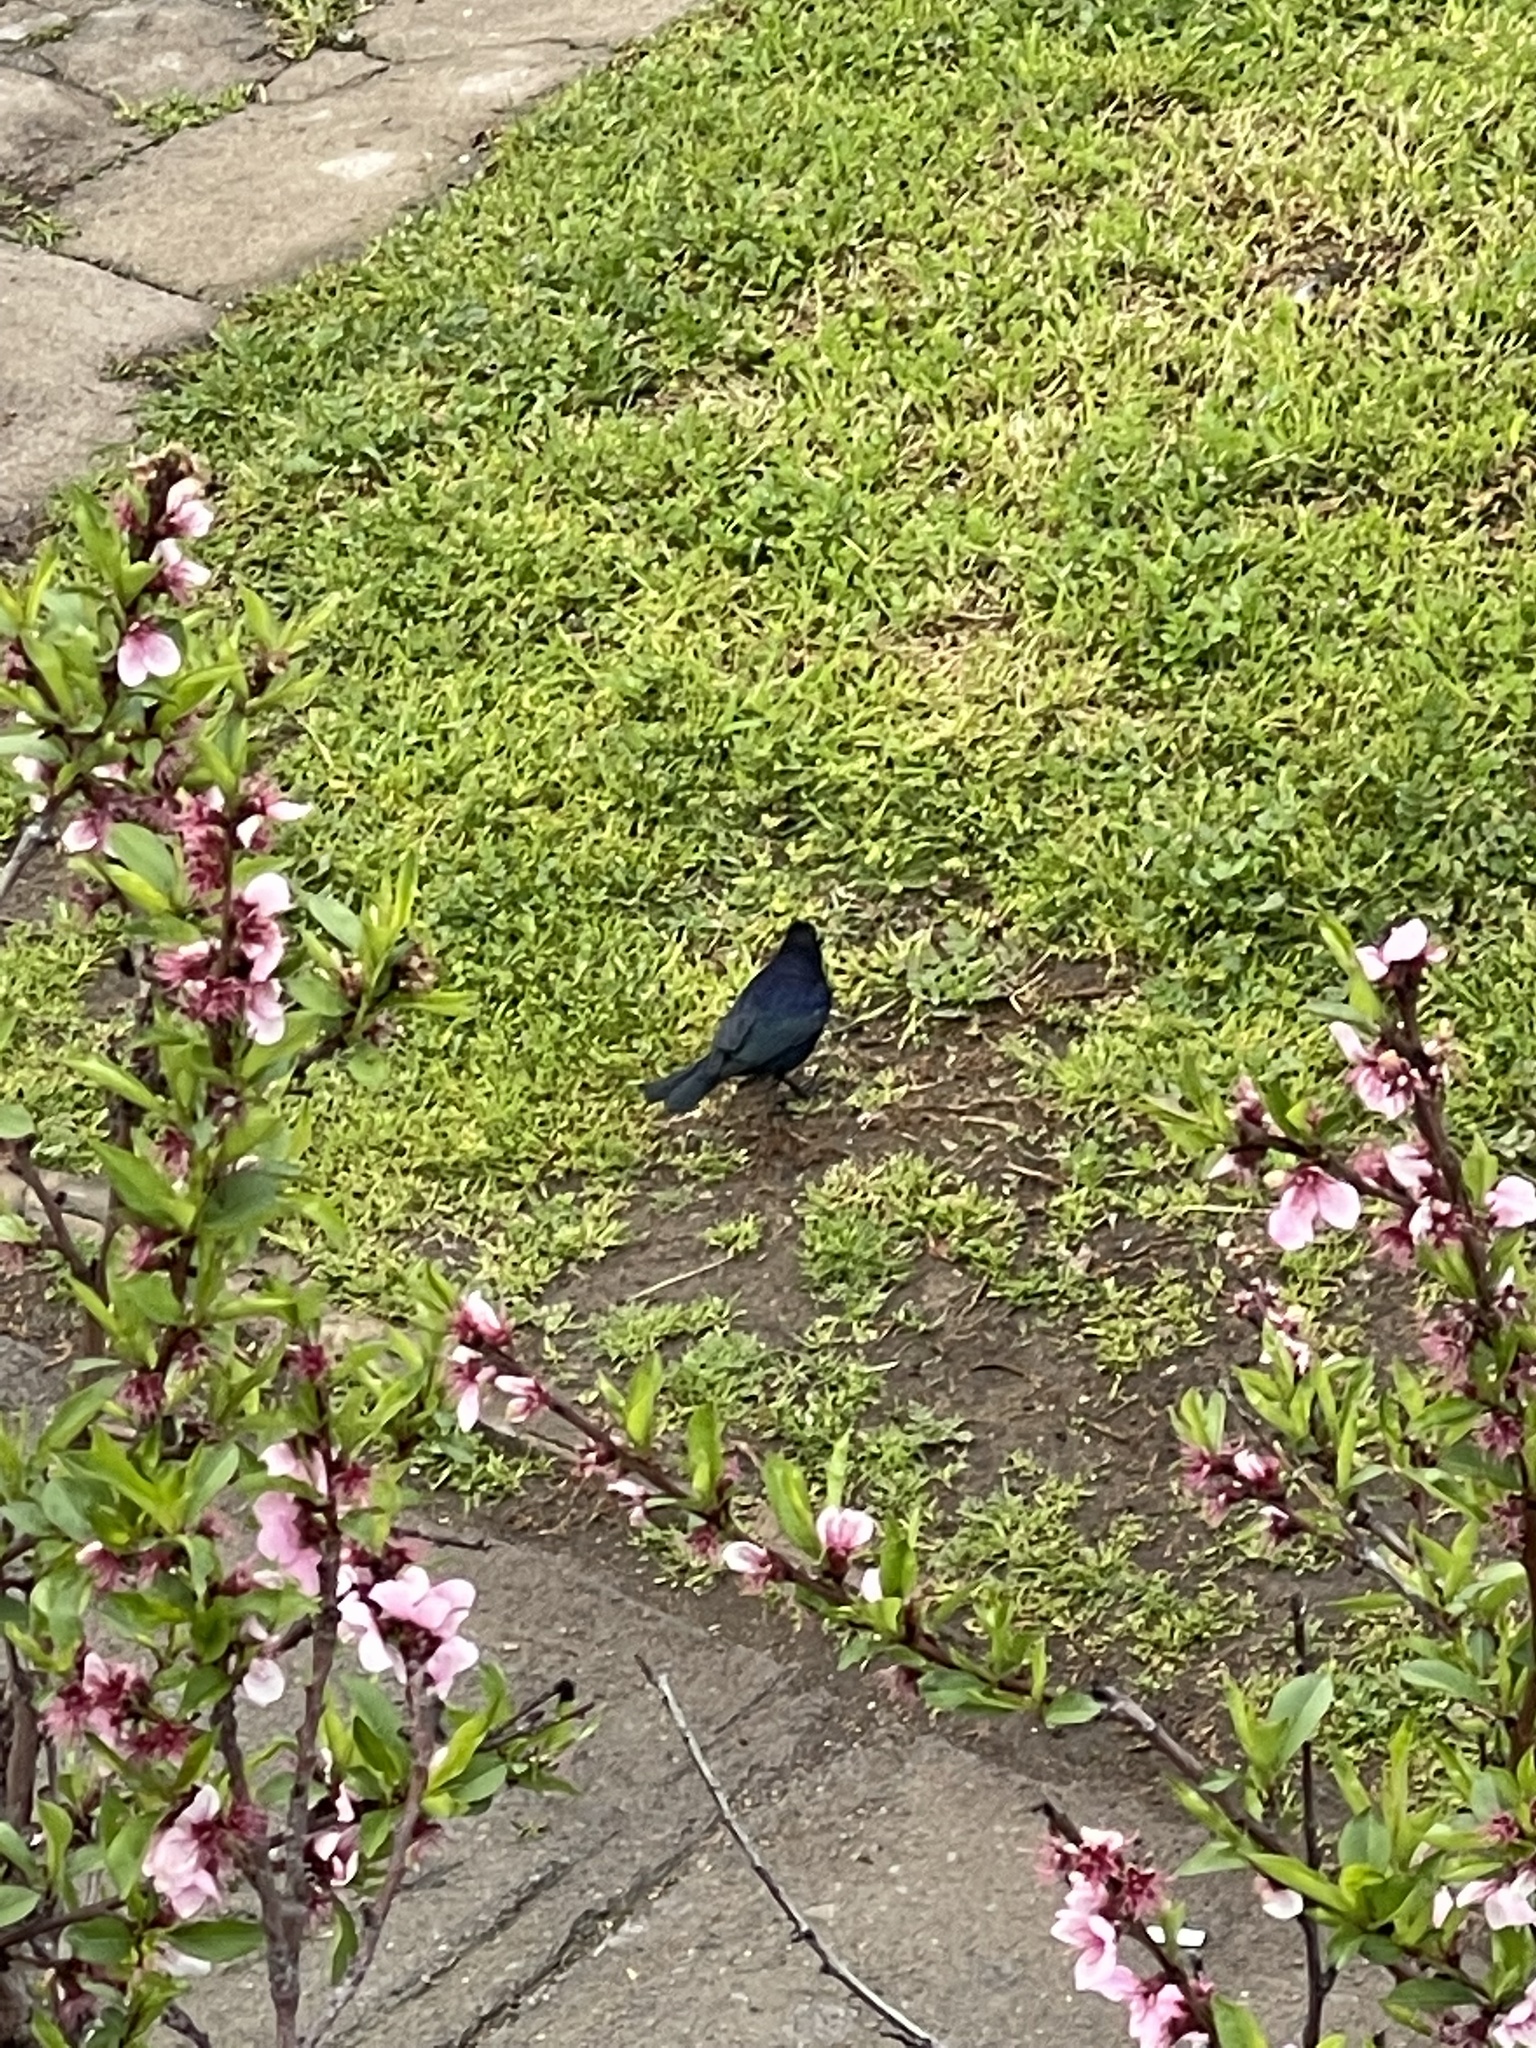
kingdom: Animalia
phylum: Chordata
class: Aves
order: Passeriformes
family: Icteridae
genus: Molothrus
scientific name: Molothrus bonariensis
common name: Shiny cowbird
